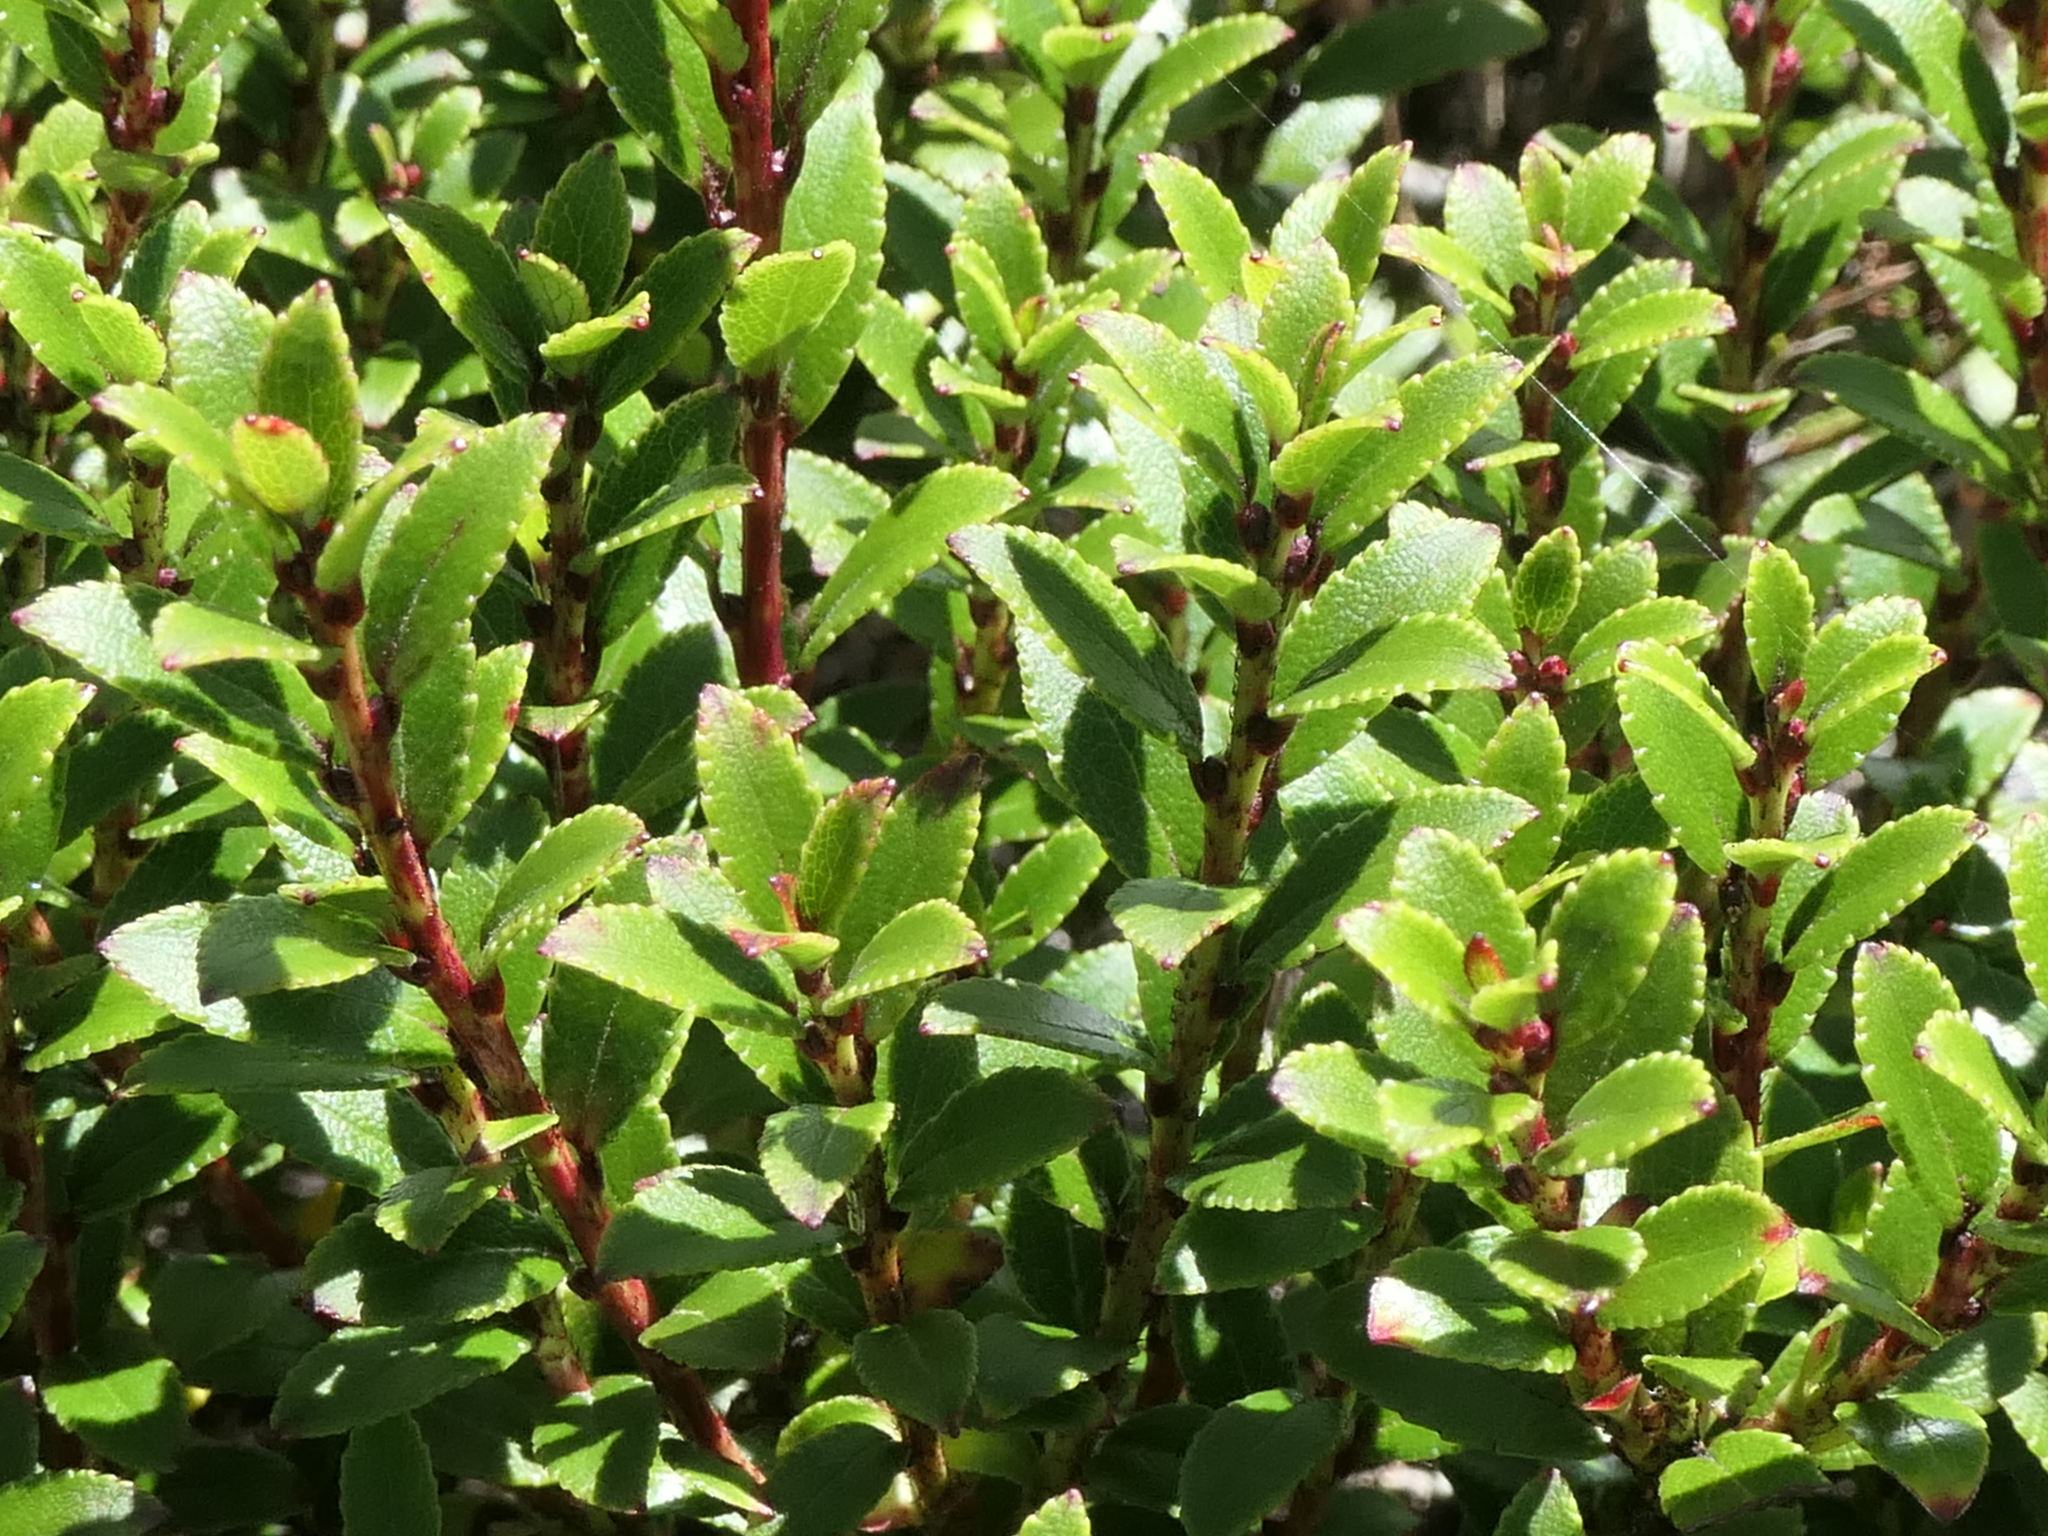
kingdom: Plantae
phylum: Tracheophyta
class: Magnoliopsida
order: Ericales
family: Ericaceae
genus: Gaultheria
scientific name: Gaultheria crassa
